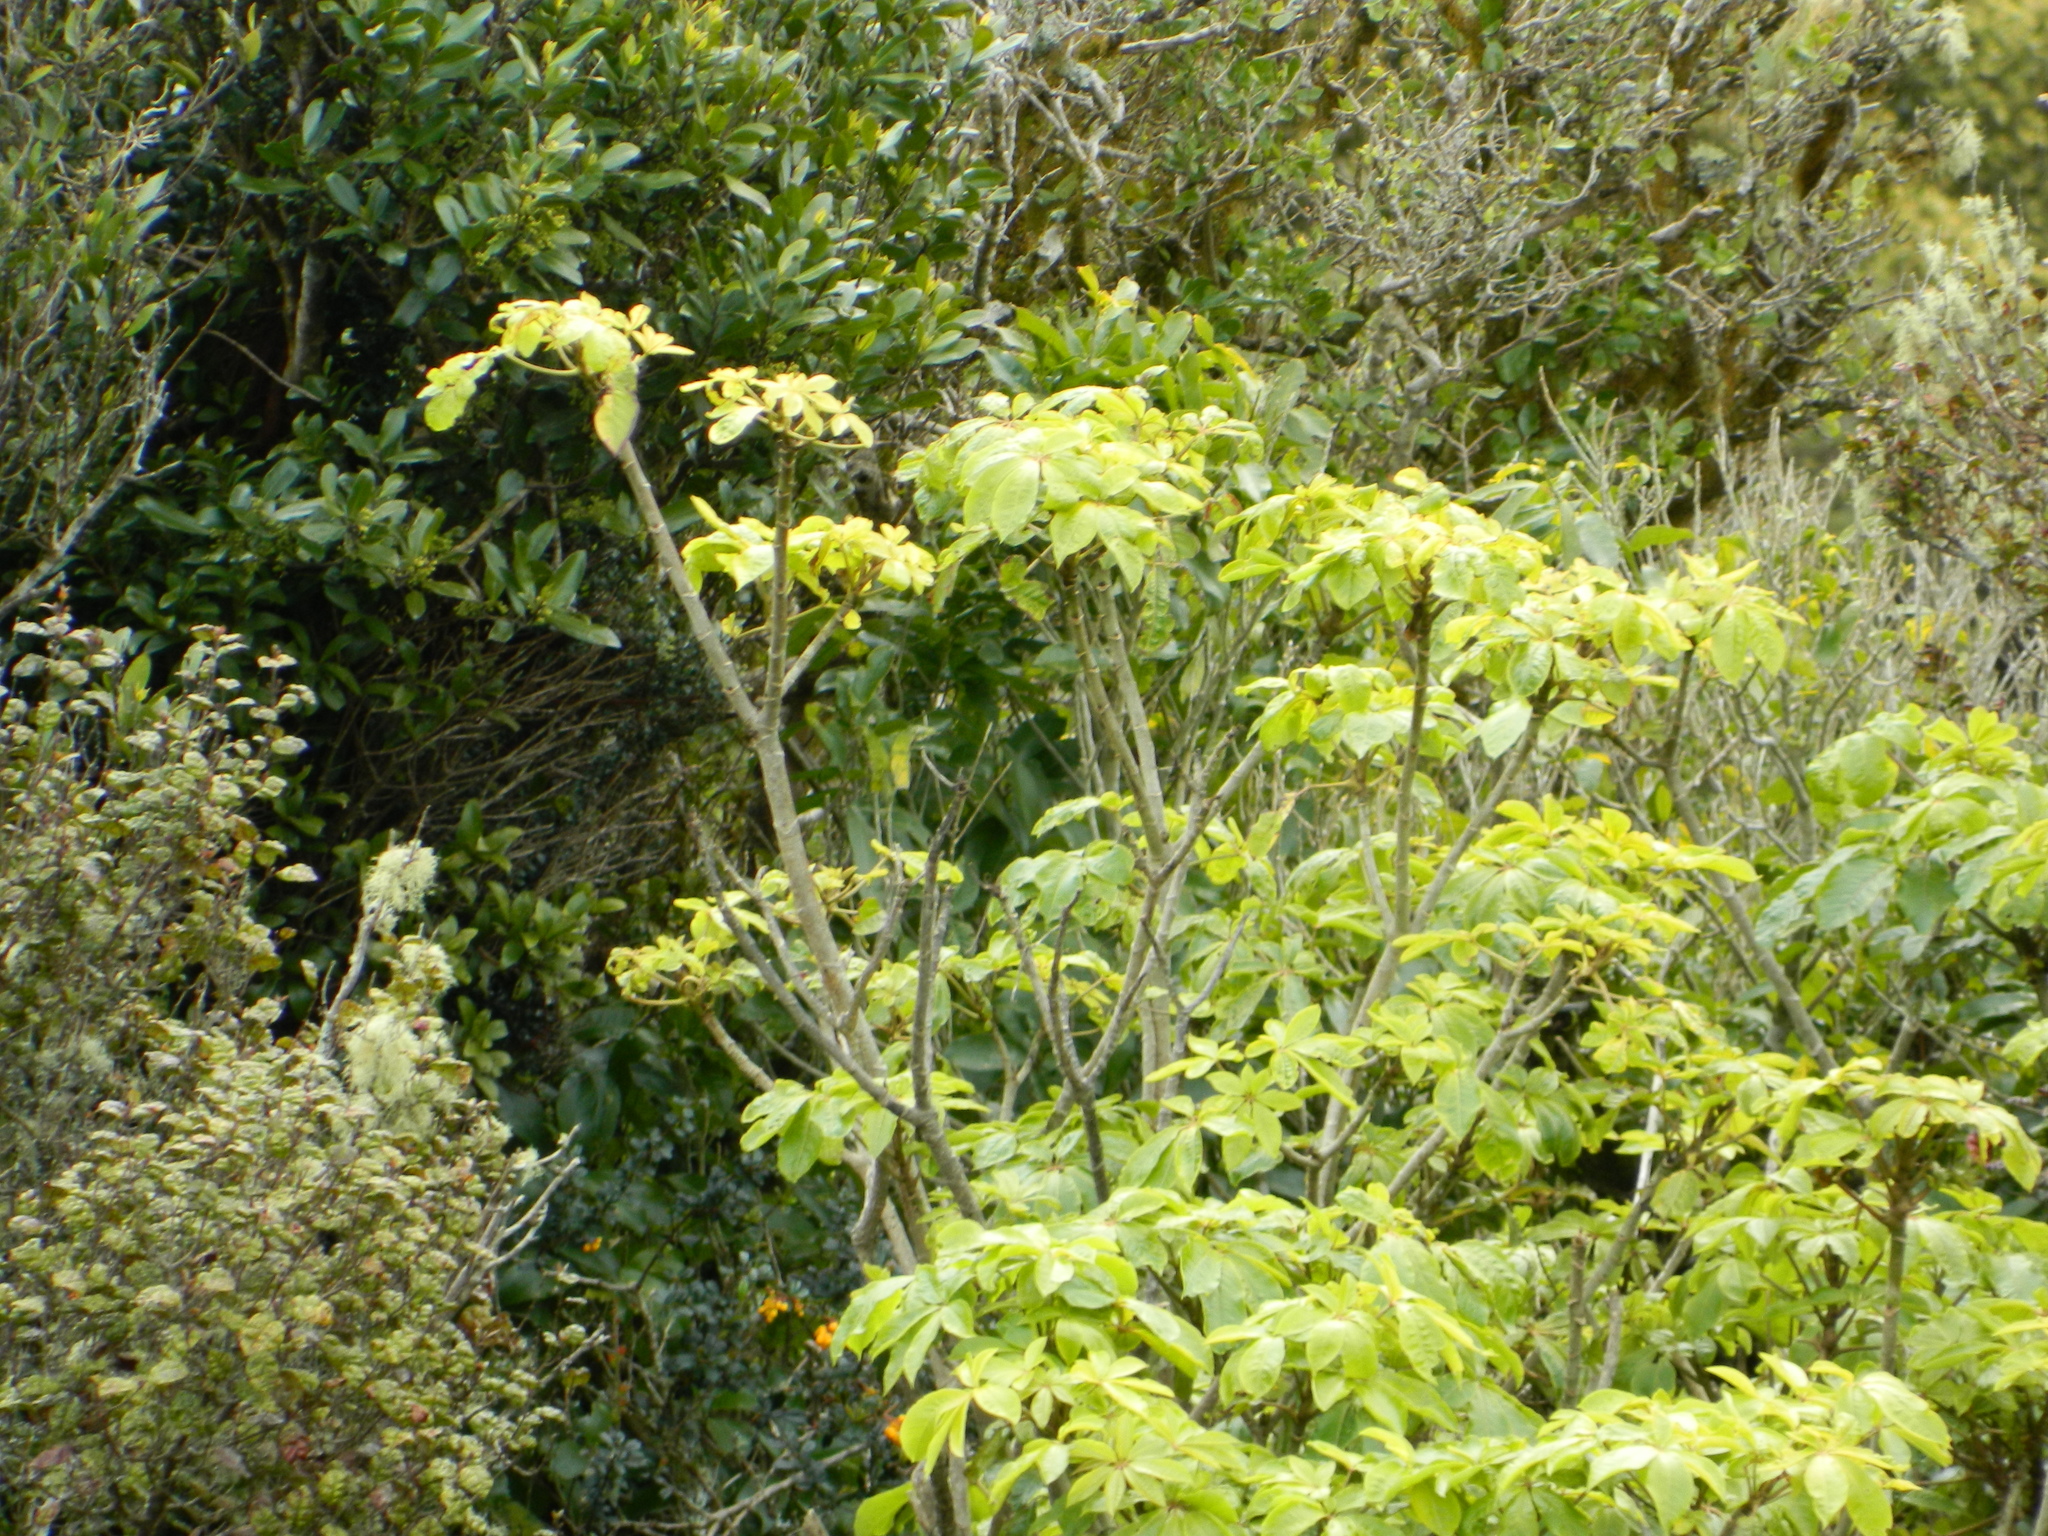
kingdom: Plantae
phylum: Tracheophyta
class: Magnoliopsida
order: Apiales
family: Araliaceae
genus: Schefflera
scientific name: Schefflera digitata
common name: Pate
